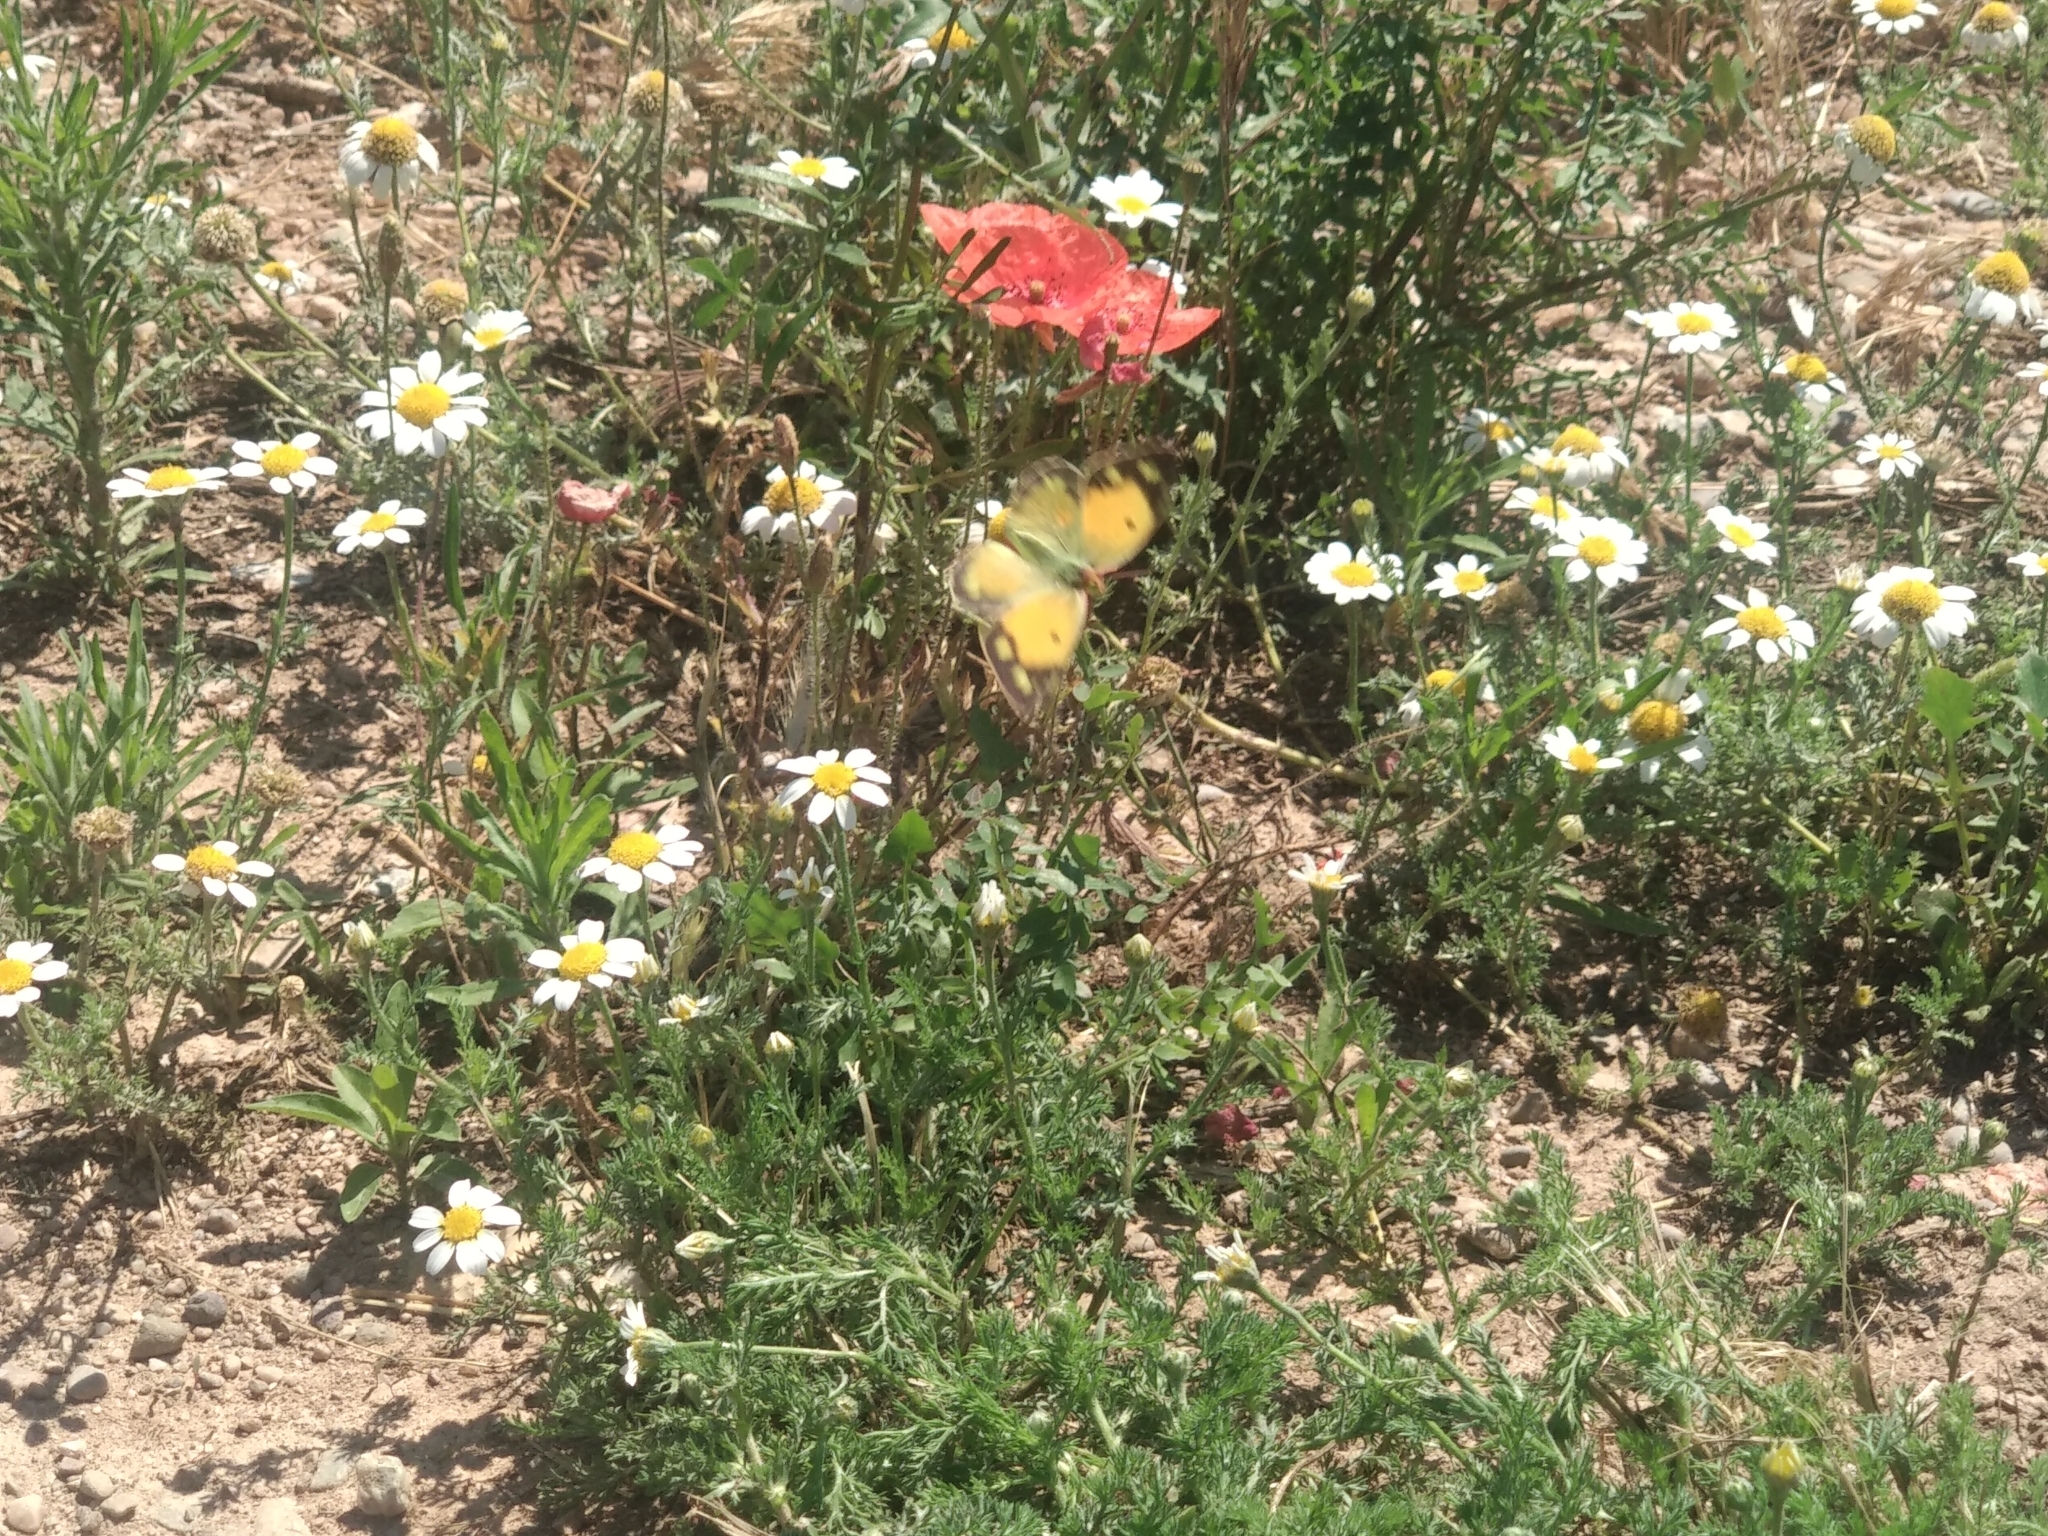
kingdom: Animalia
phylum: Arthropoda
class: Insecta
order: Lepidoptera
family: Pieridae
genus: Colias
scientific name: Colias croceus
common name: Clouded yellow
